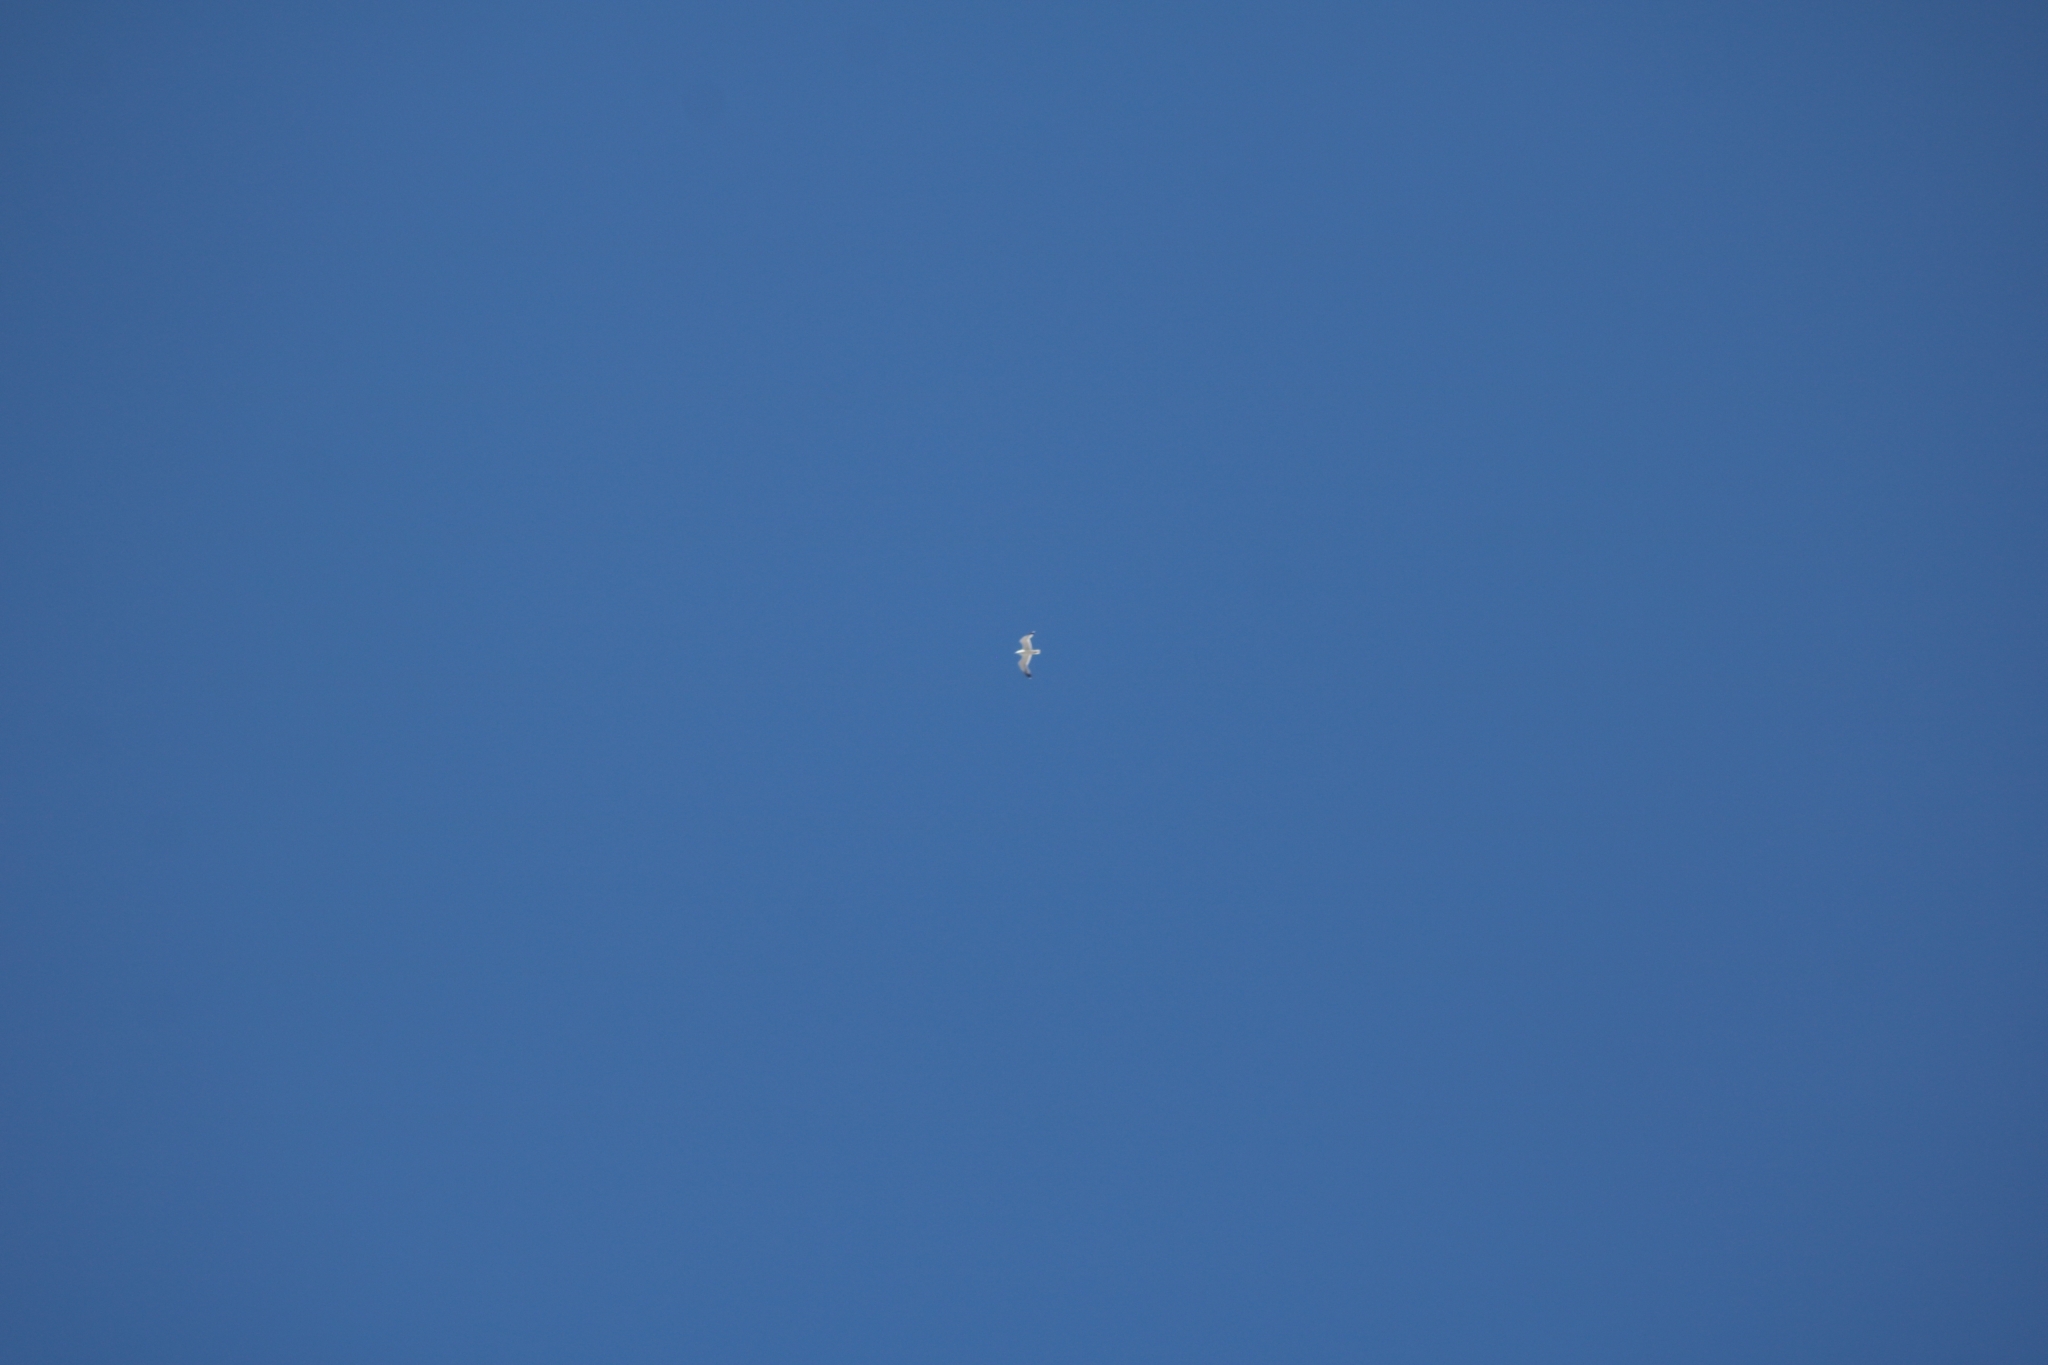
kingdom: Animalia
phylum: Chordata
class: Aves
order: Charadriiformes
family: Laridae
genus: Larus
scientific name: Larus michahellis
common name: Yellow-legged gull
